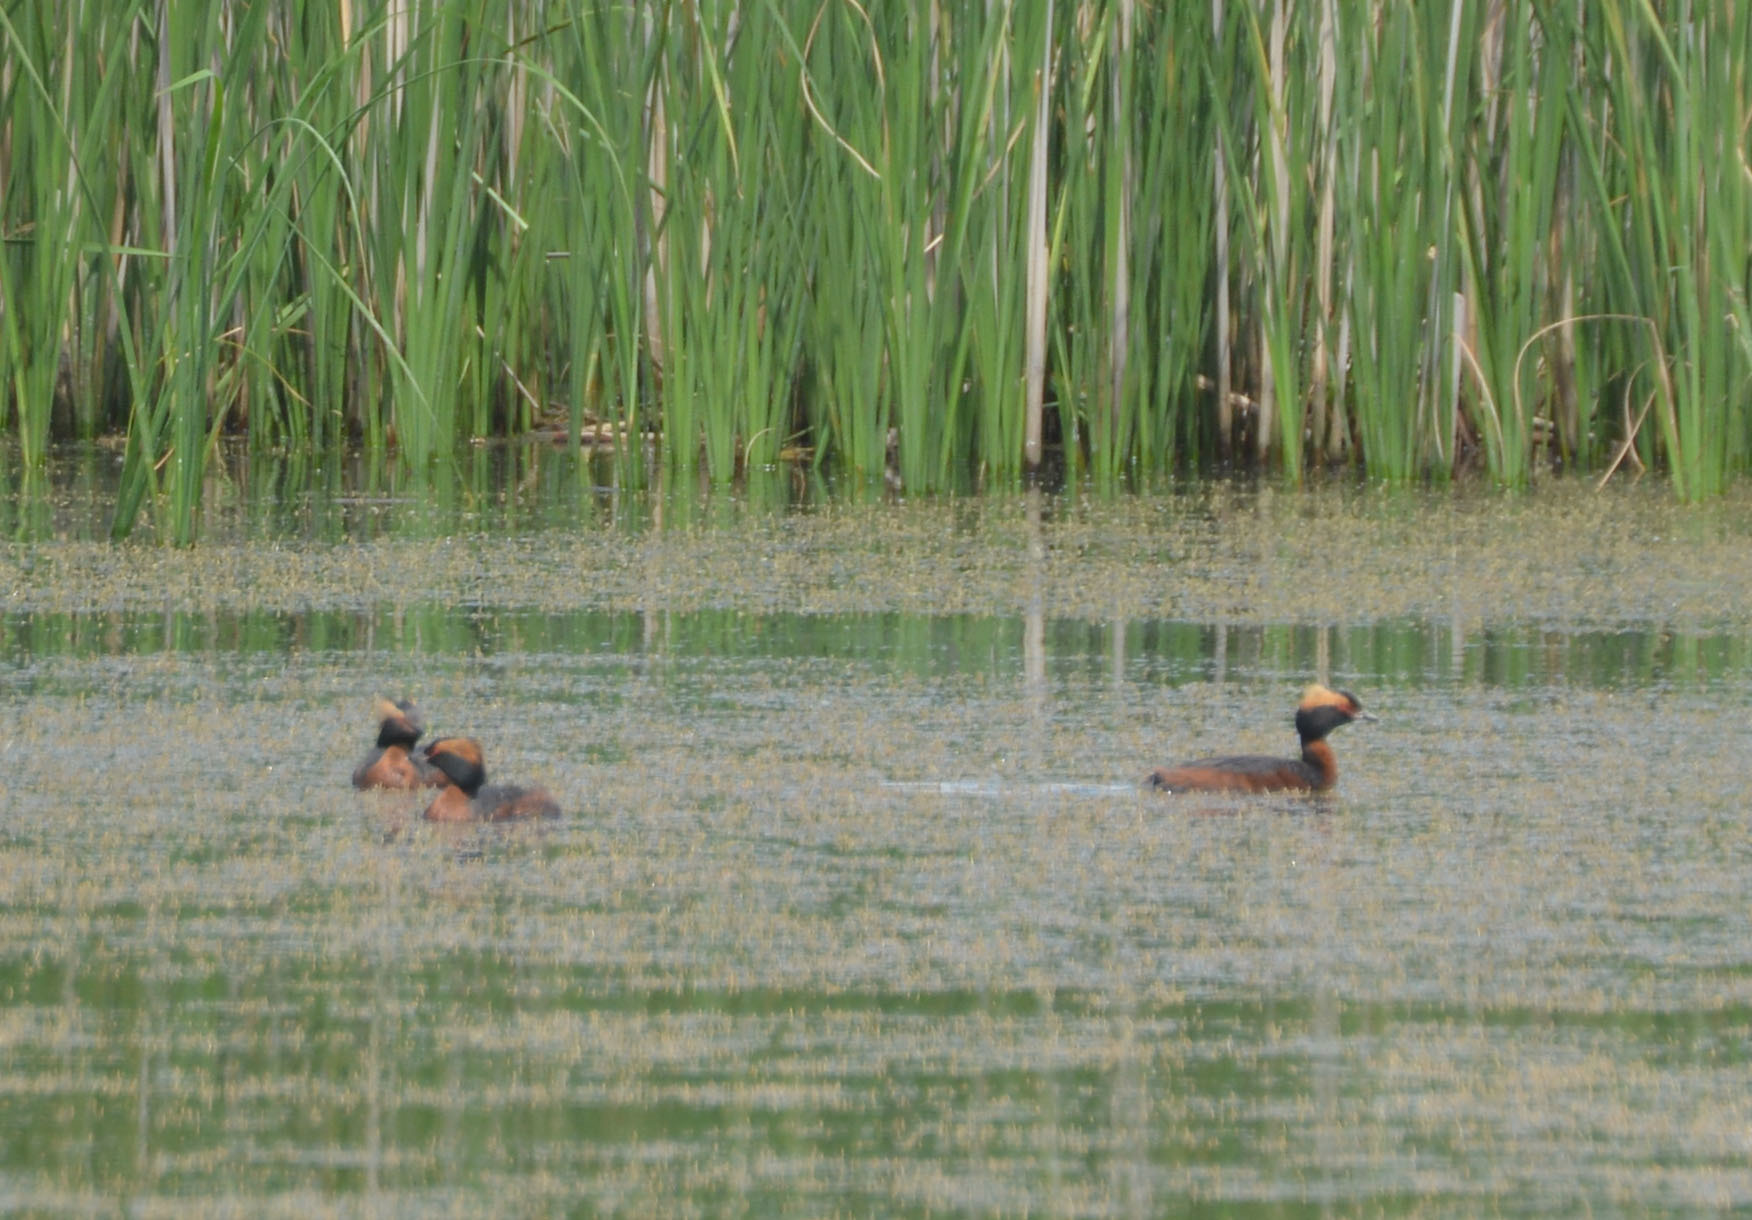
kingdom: Animalia
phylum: Chordata
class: Aves
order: Podicipediformes
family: Podicipedidae
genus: Podiceps
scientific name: Podiceps auritus
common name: Horned grebe
